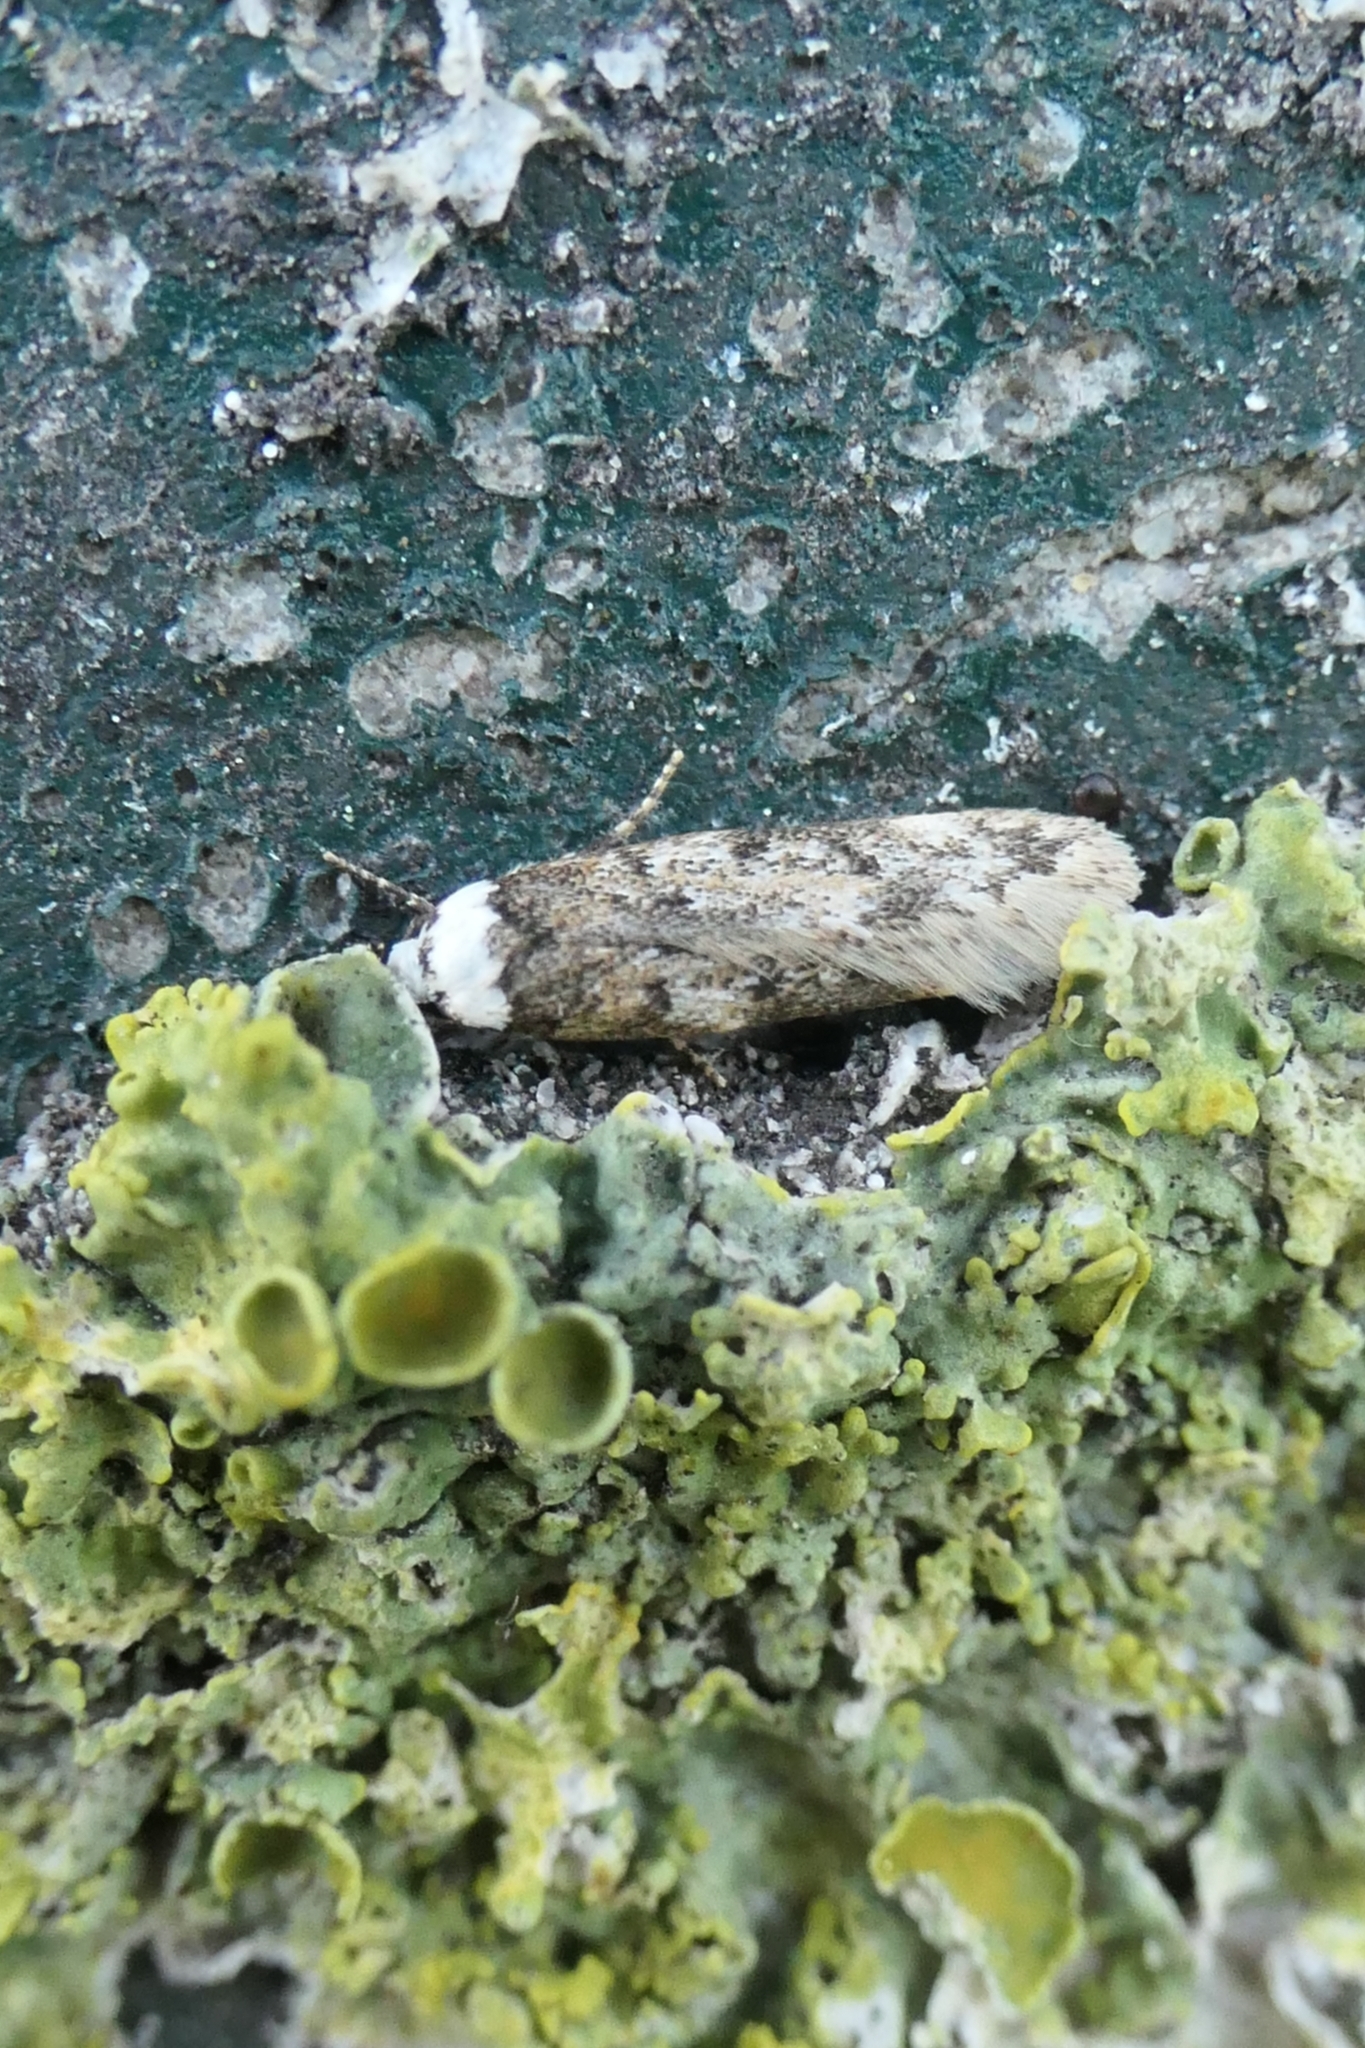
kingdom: Animalia
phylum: Arthropoda
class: Insecta
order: Lepidoptera
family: Oecophoridae
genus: Endrosis
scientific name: Endrosis sarcitrella
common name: White-shouldered house moth
